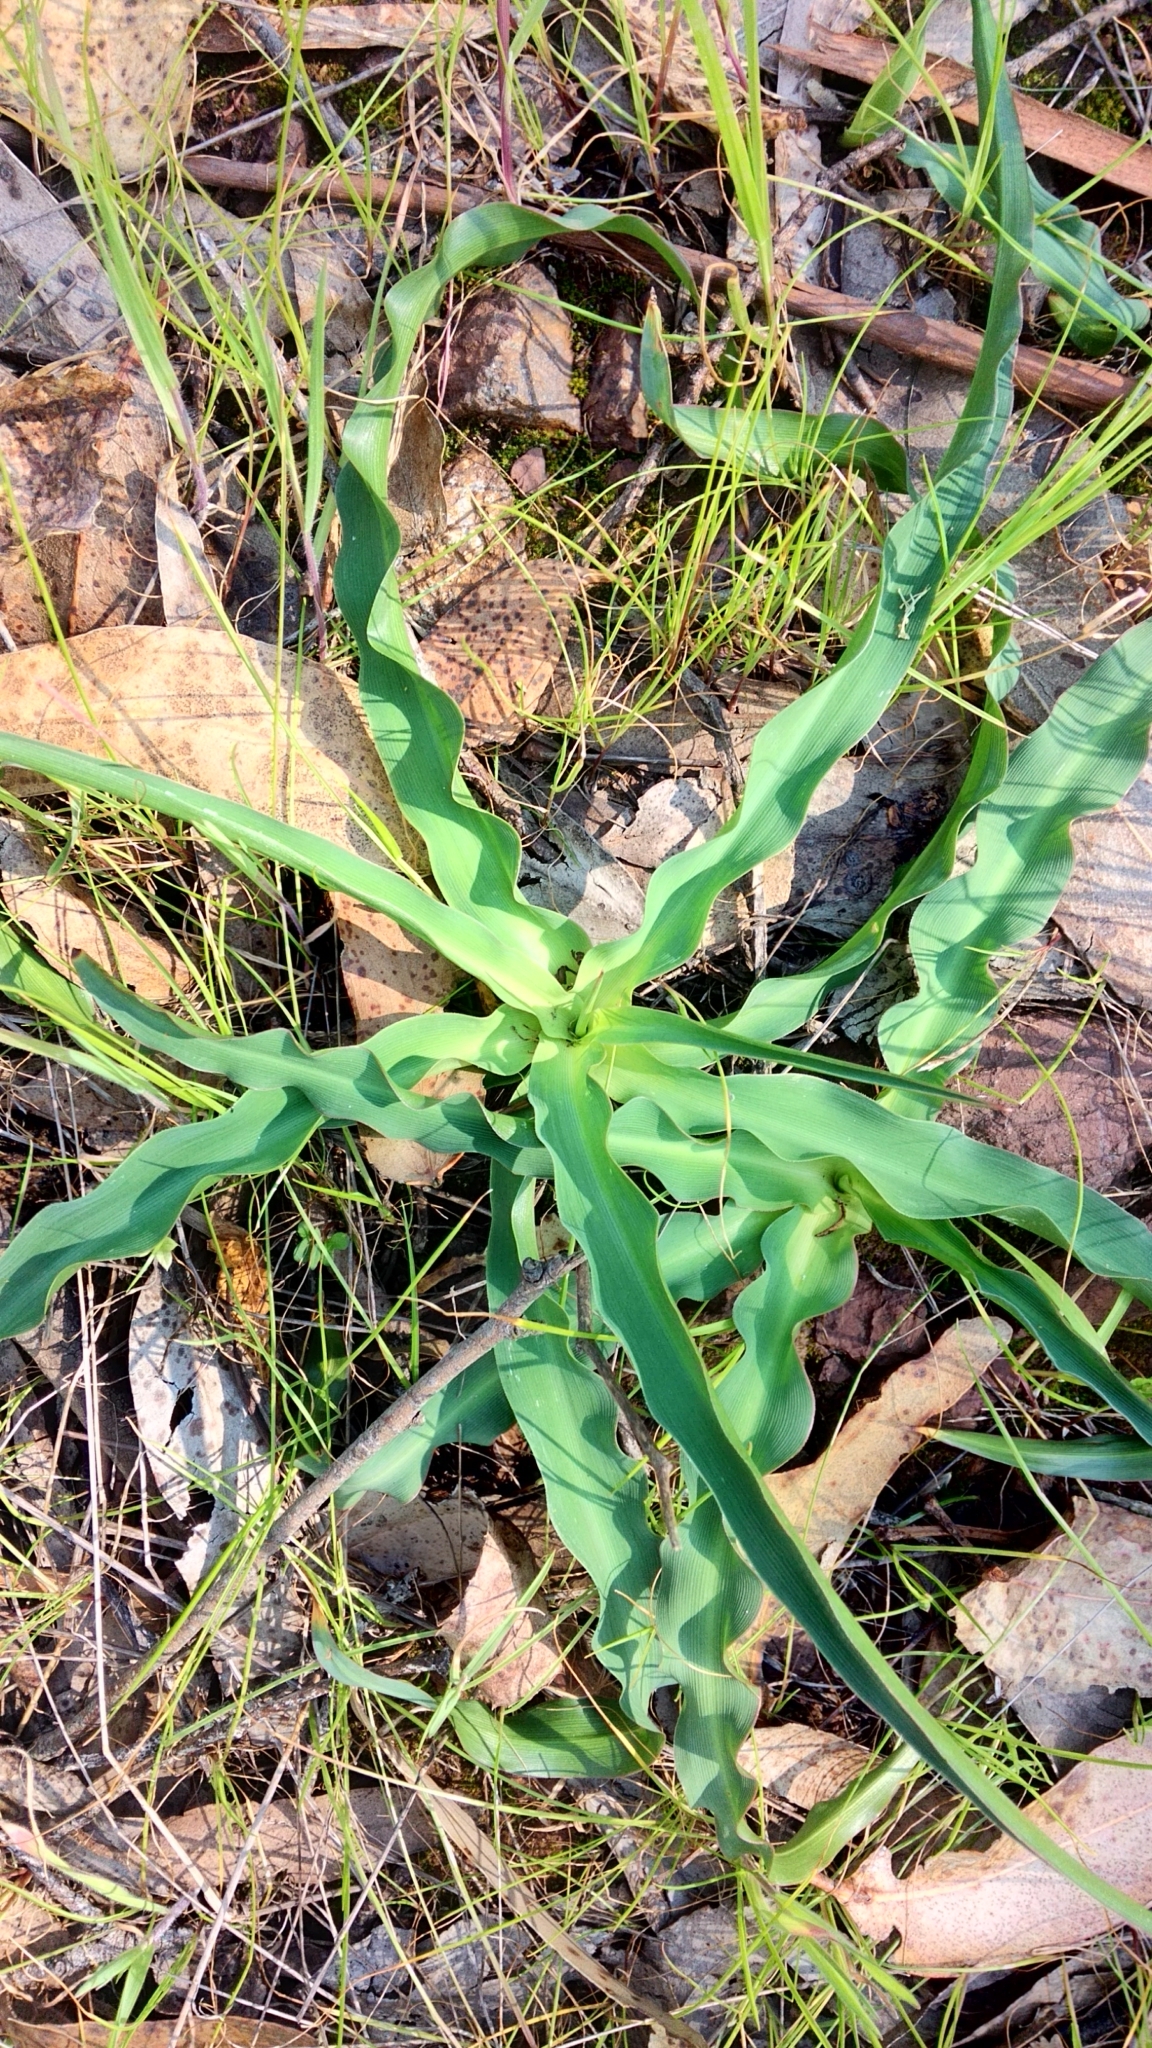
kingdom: Plantae
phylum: Tracheophyta
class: Liliopsida
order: Asparagales
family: Asparagaceae
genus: Chlorogalum
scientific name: Chlorogalum pomeridianum
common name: Amole
